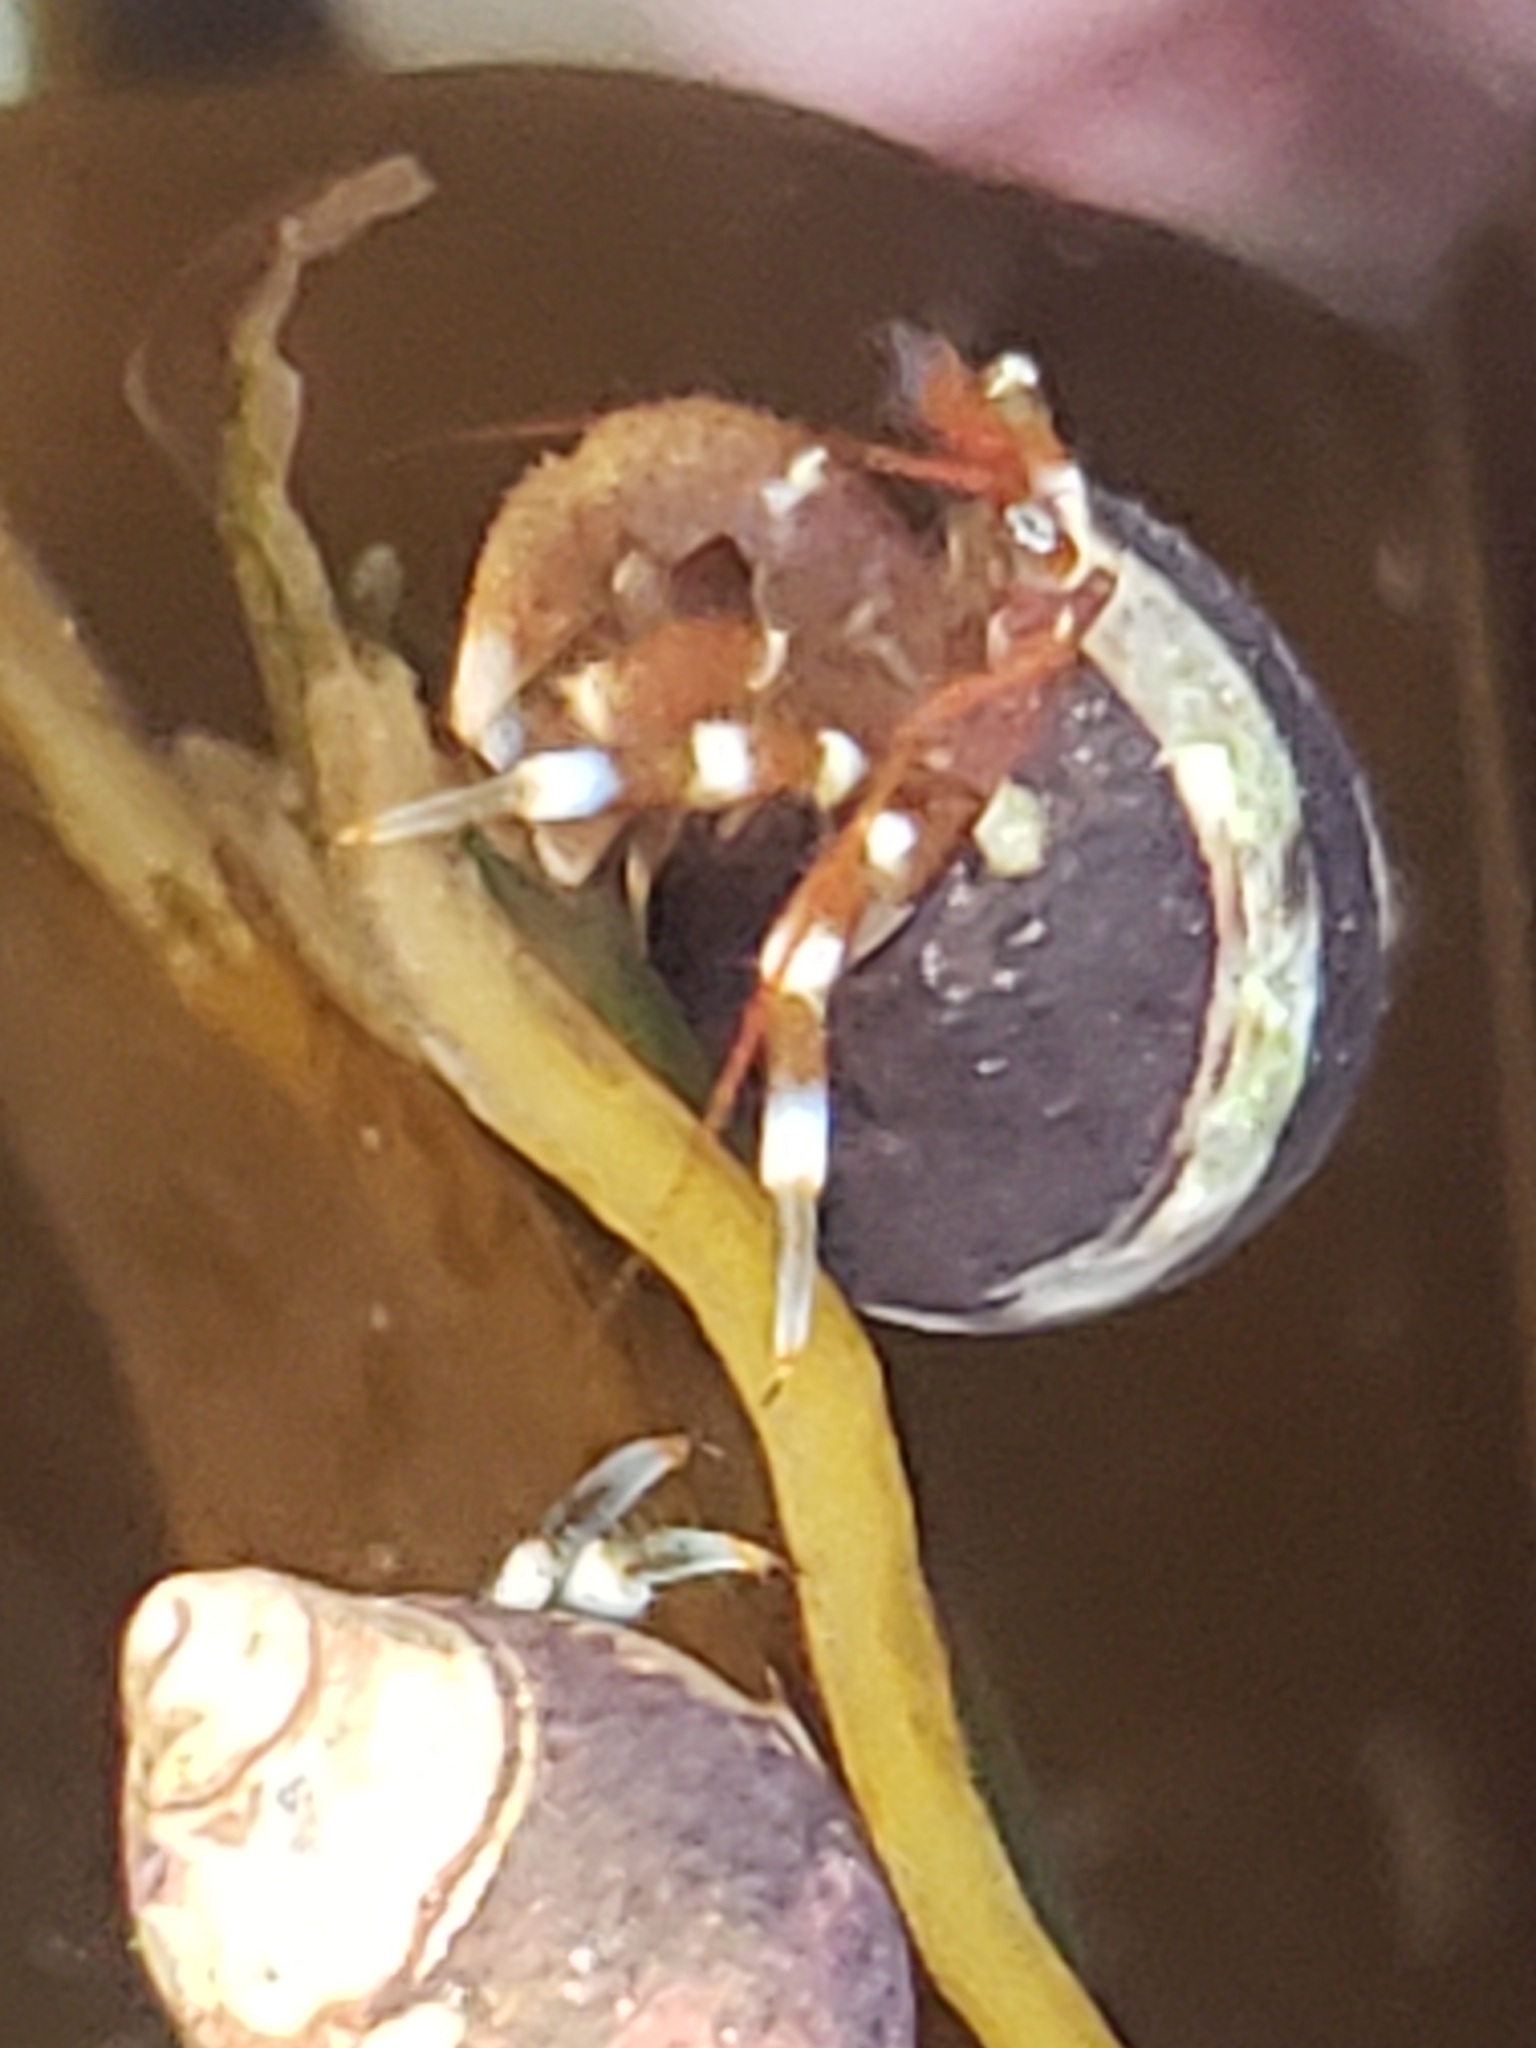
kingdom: Animalia
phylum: Arthropoda
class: Malacostraca
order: Decapoda
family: Paguridae
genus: Pagurus
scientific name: Pagurus samuelis
